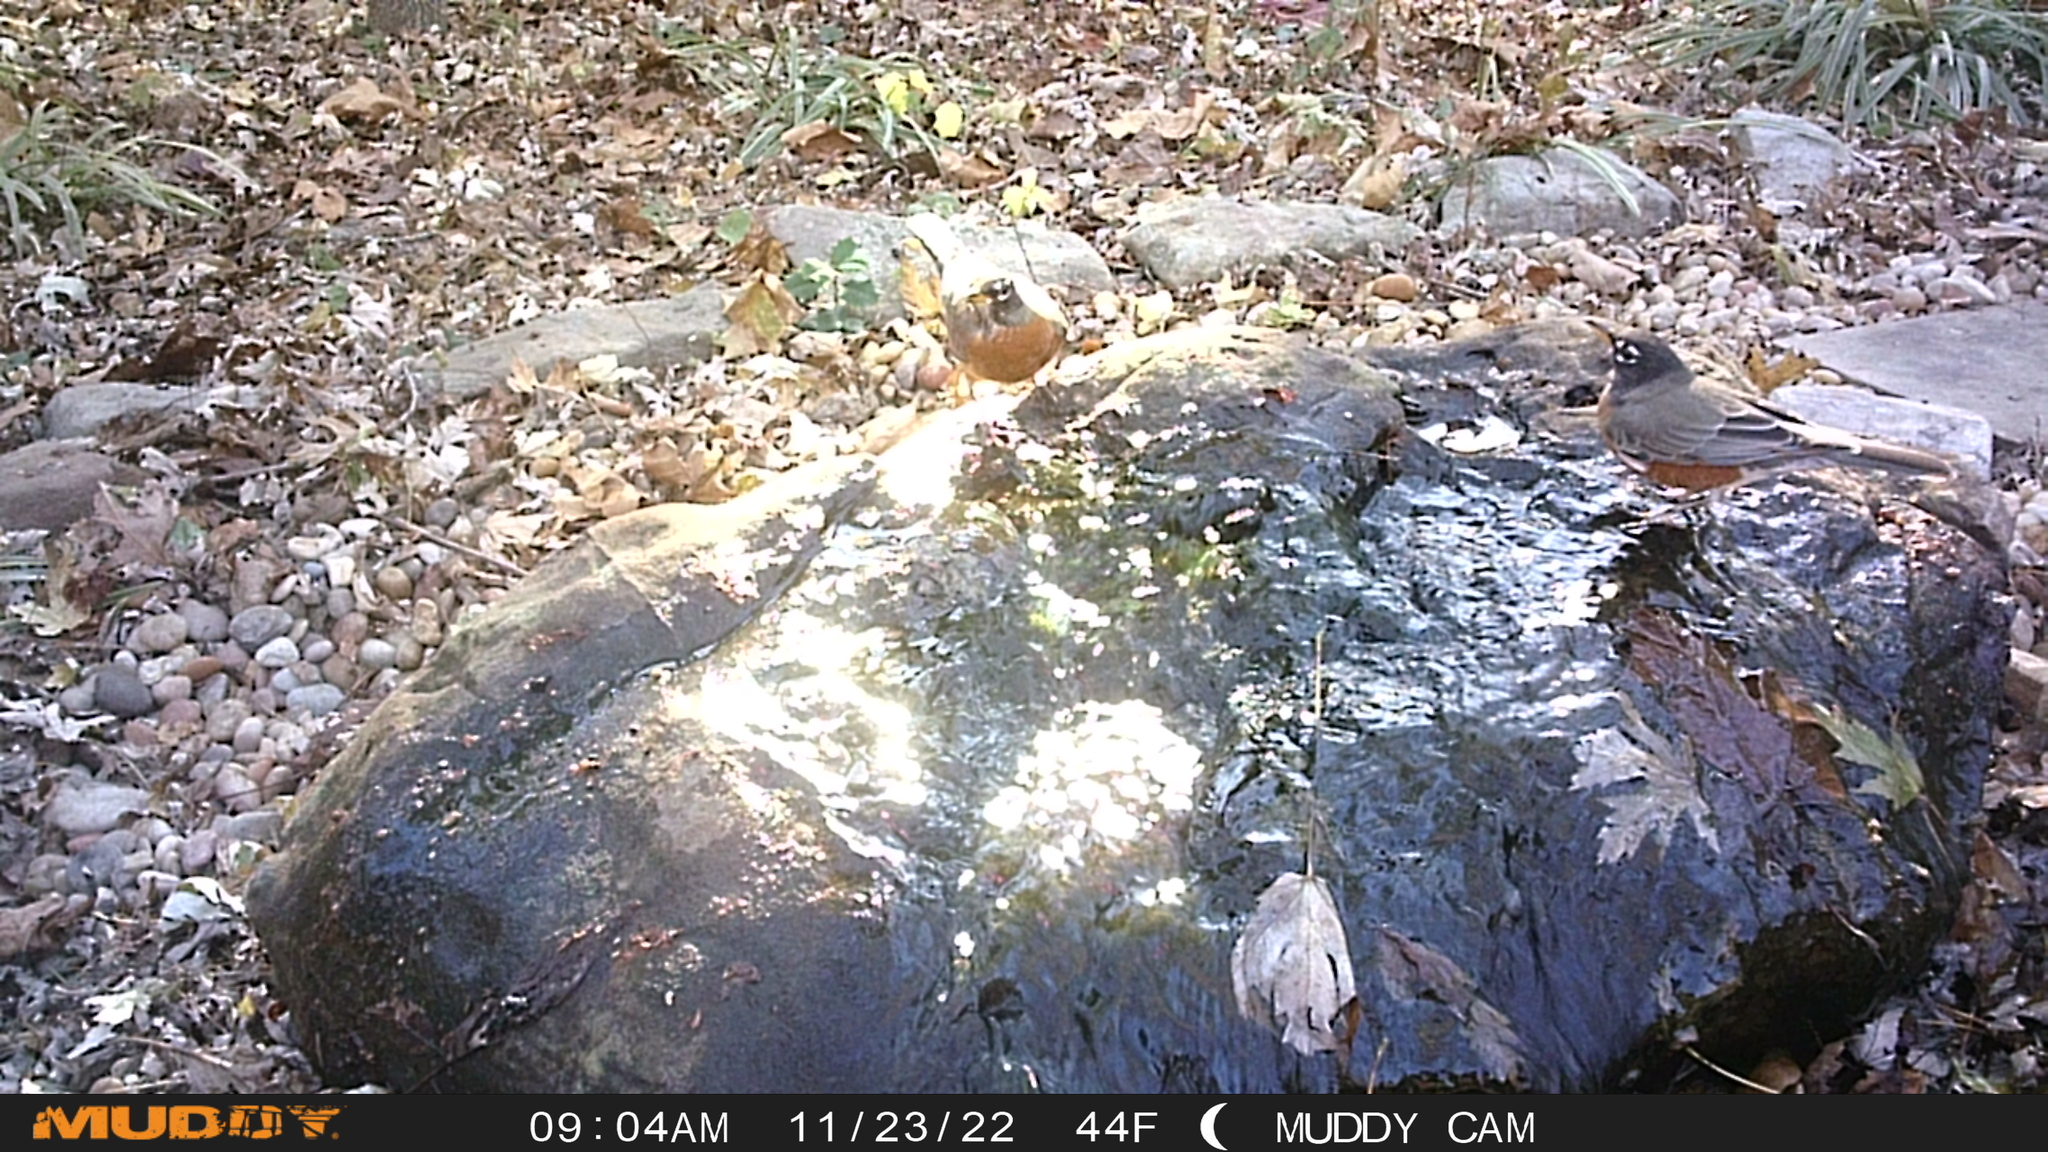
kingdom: Animalia
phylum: Chordata
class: Aves
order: Passeriformes
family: Turdidae
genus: Turdus
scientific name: Turdus migratorius
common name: American robin
